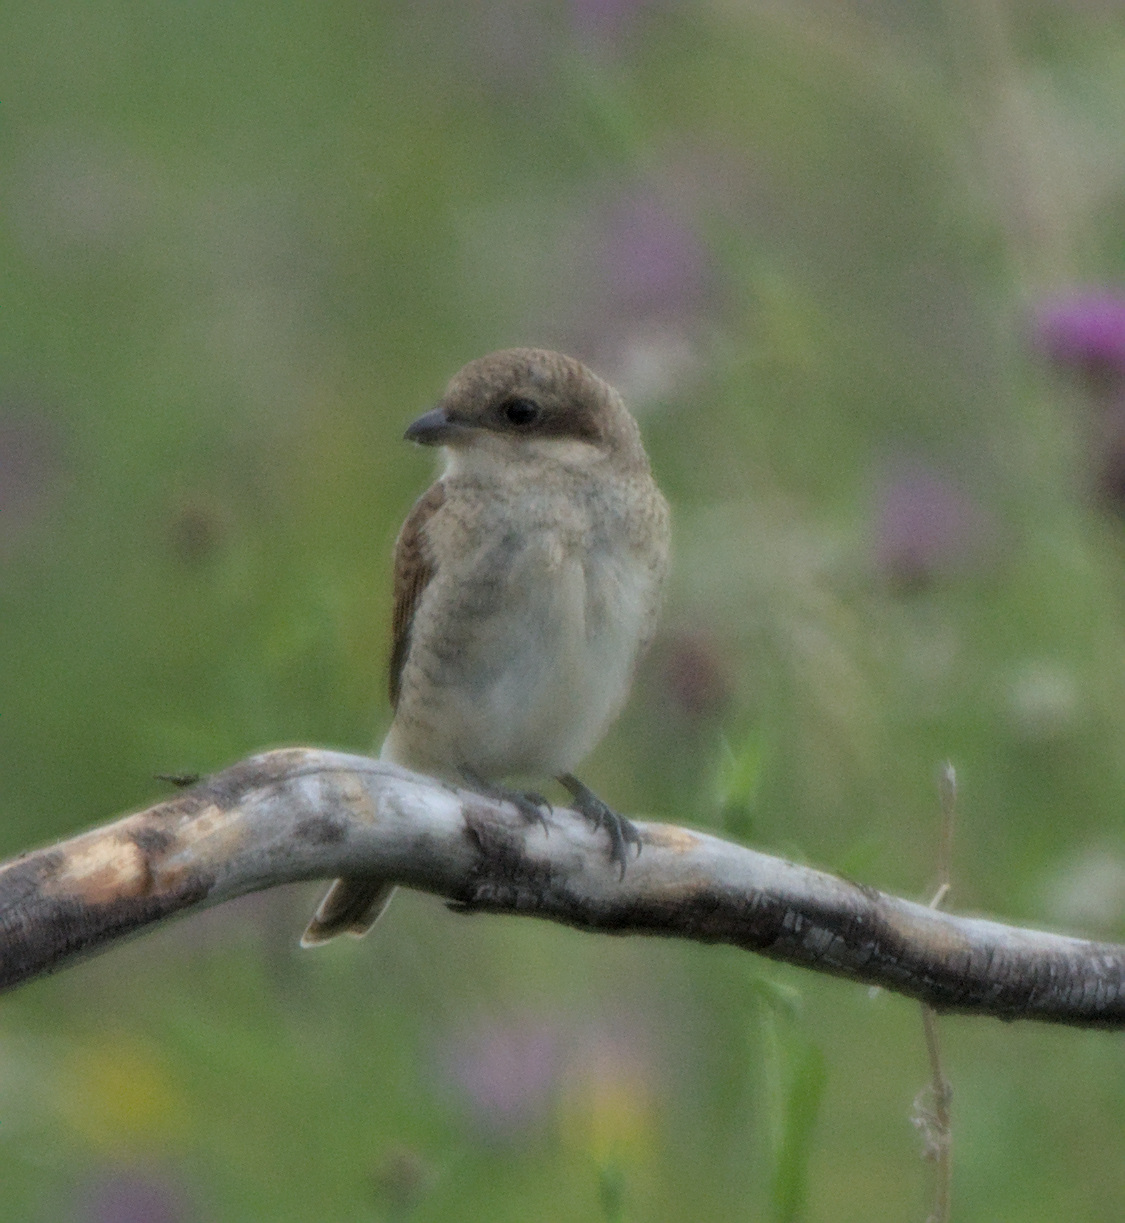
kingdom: Animalia
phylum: Chordata
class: Aves
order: Passeriformes
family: Laniidae
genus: Lanius
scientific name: Lanius collurio
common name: Red-backed shrike
